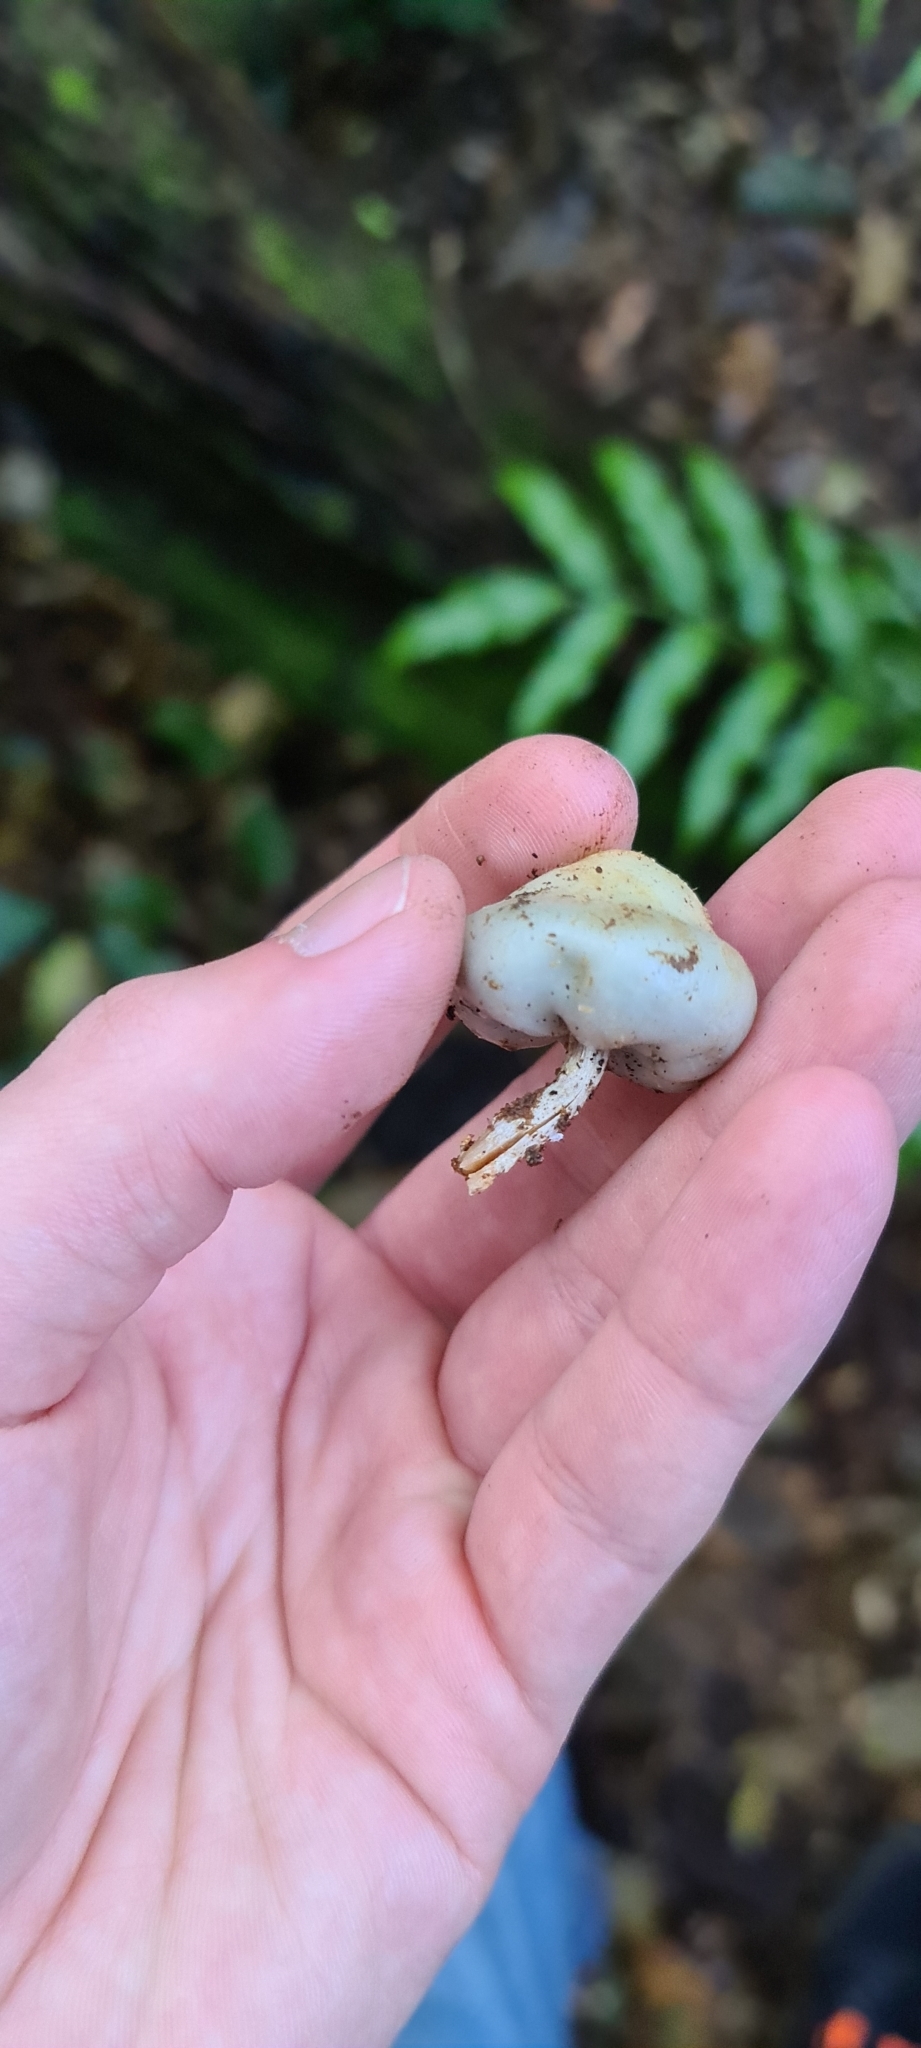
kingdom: Fungi
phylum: Basidiomycota
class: Agaricomycetes
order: Agaricales
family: Hymenogastraceae
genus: Psilocybe
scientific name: Psilocybe weraroa
